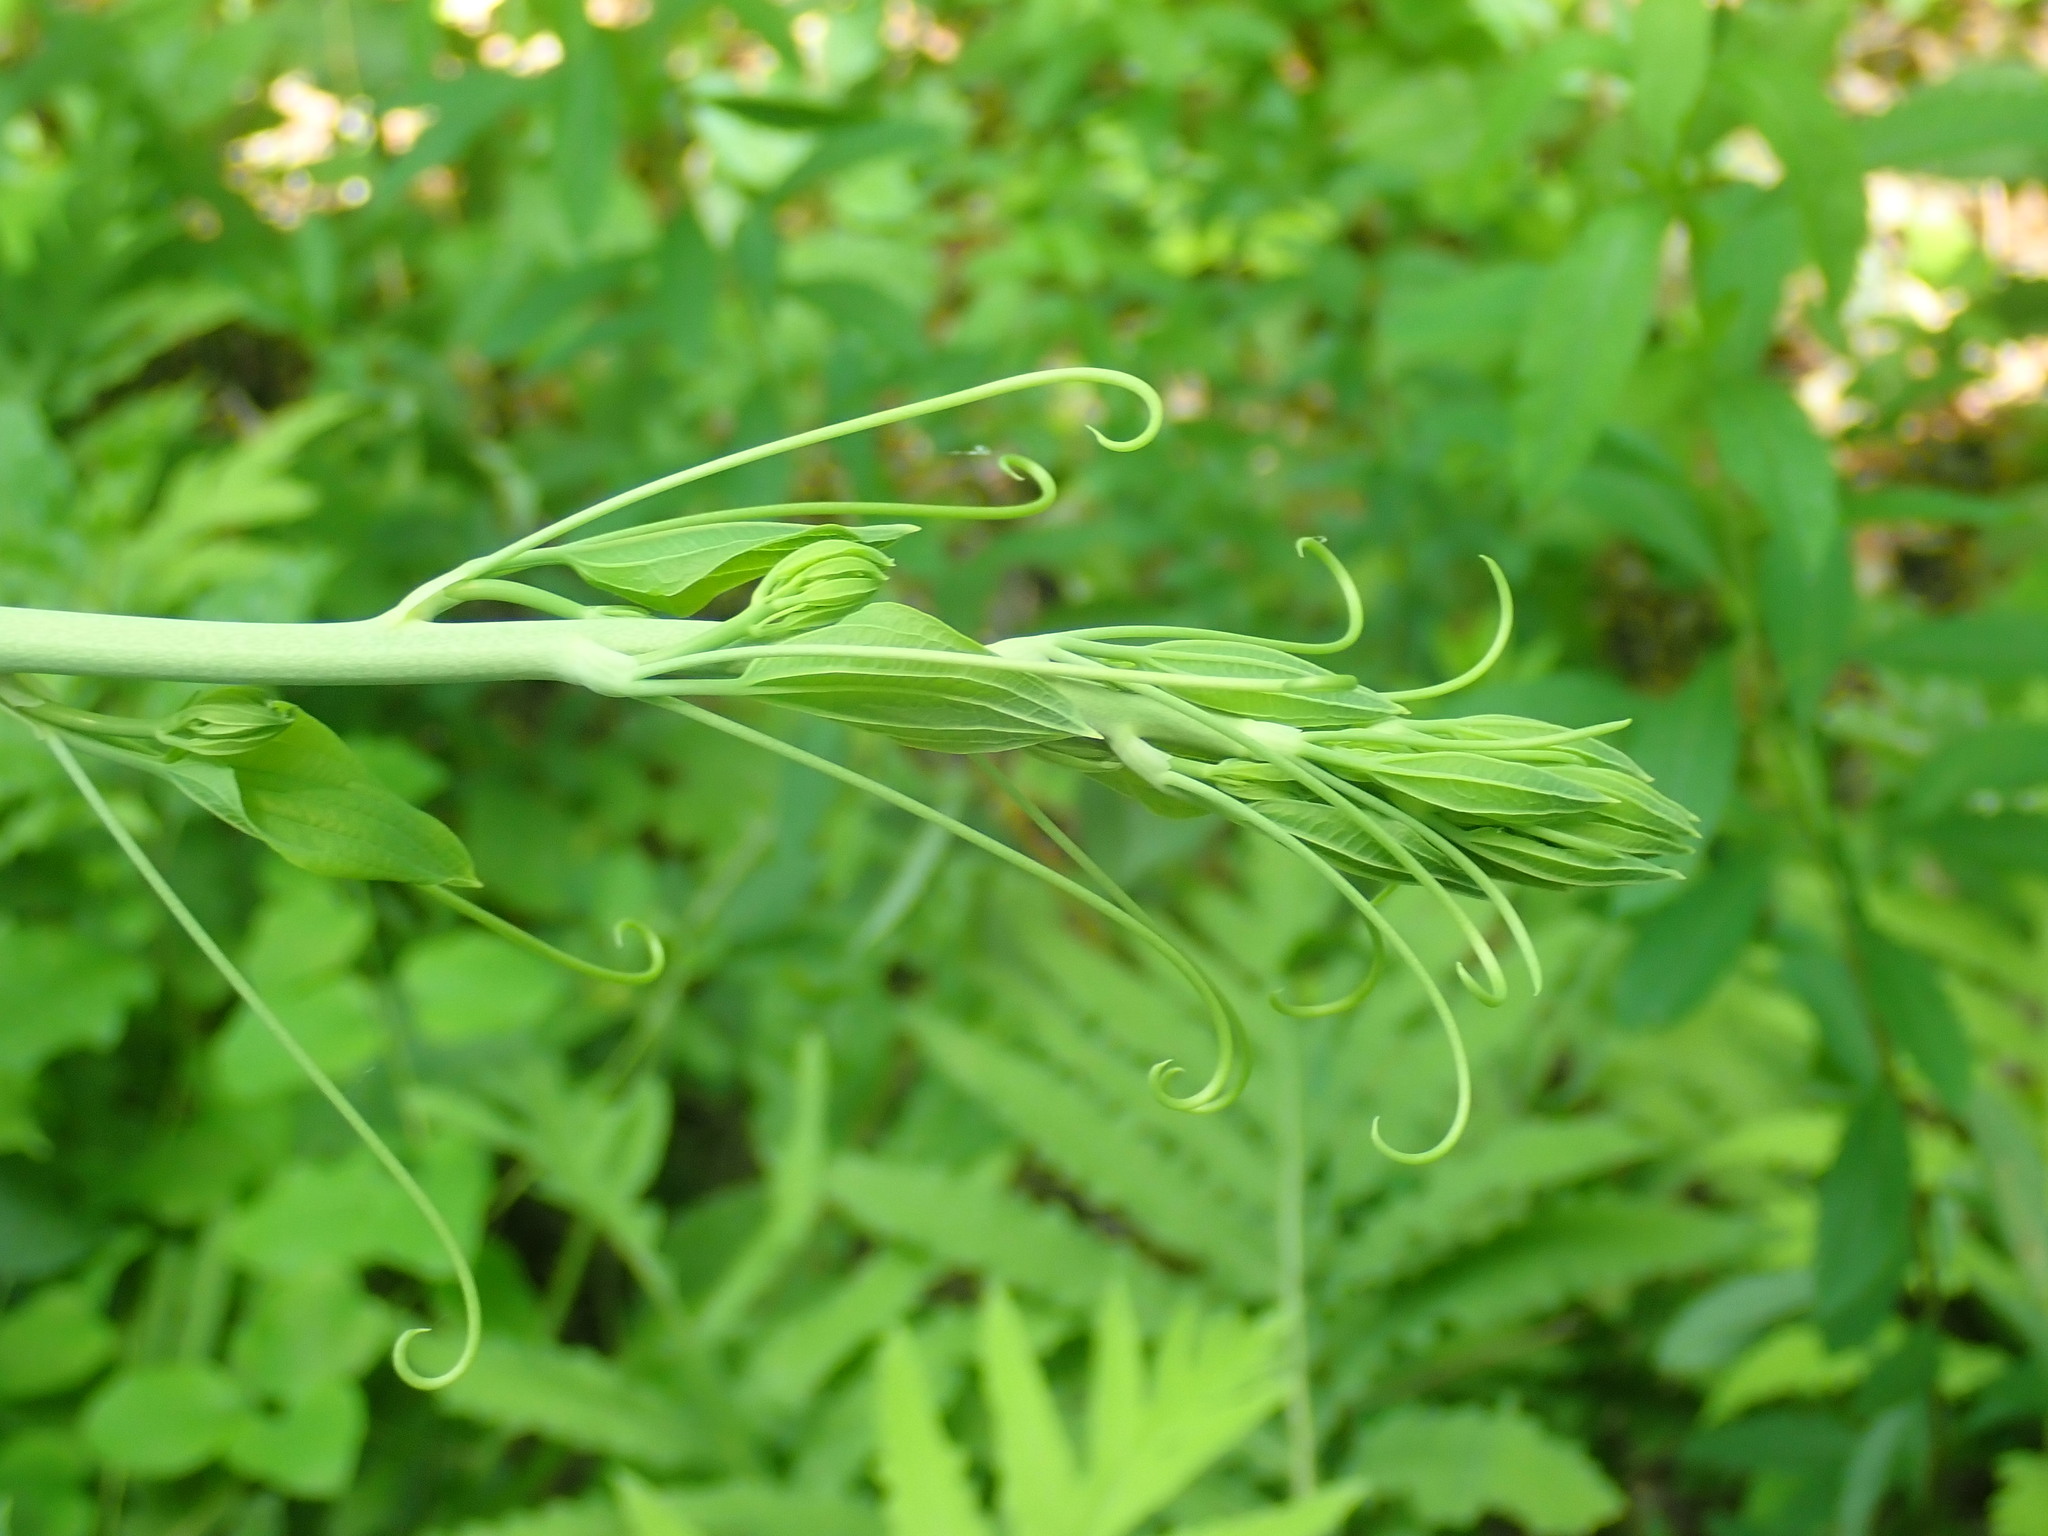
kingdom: Plantae
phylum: Tracheophyta
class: Liliopsida
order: Liliales
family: Smilacaceae
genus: Smilax
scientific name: Smilax herbacea
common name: Jacob's-ladder
